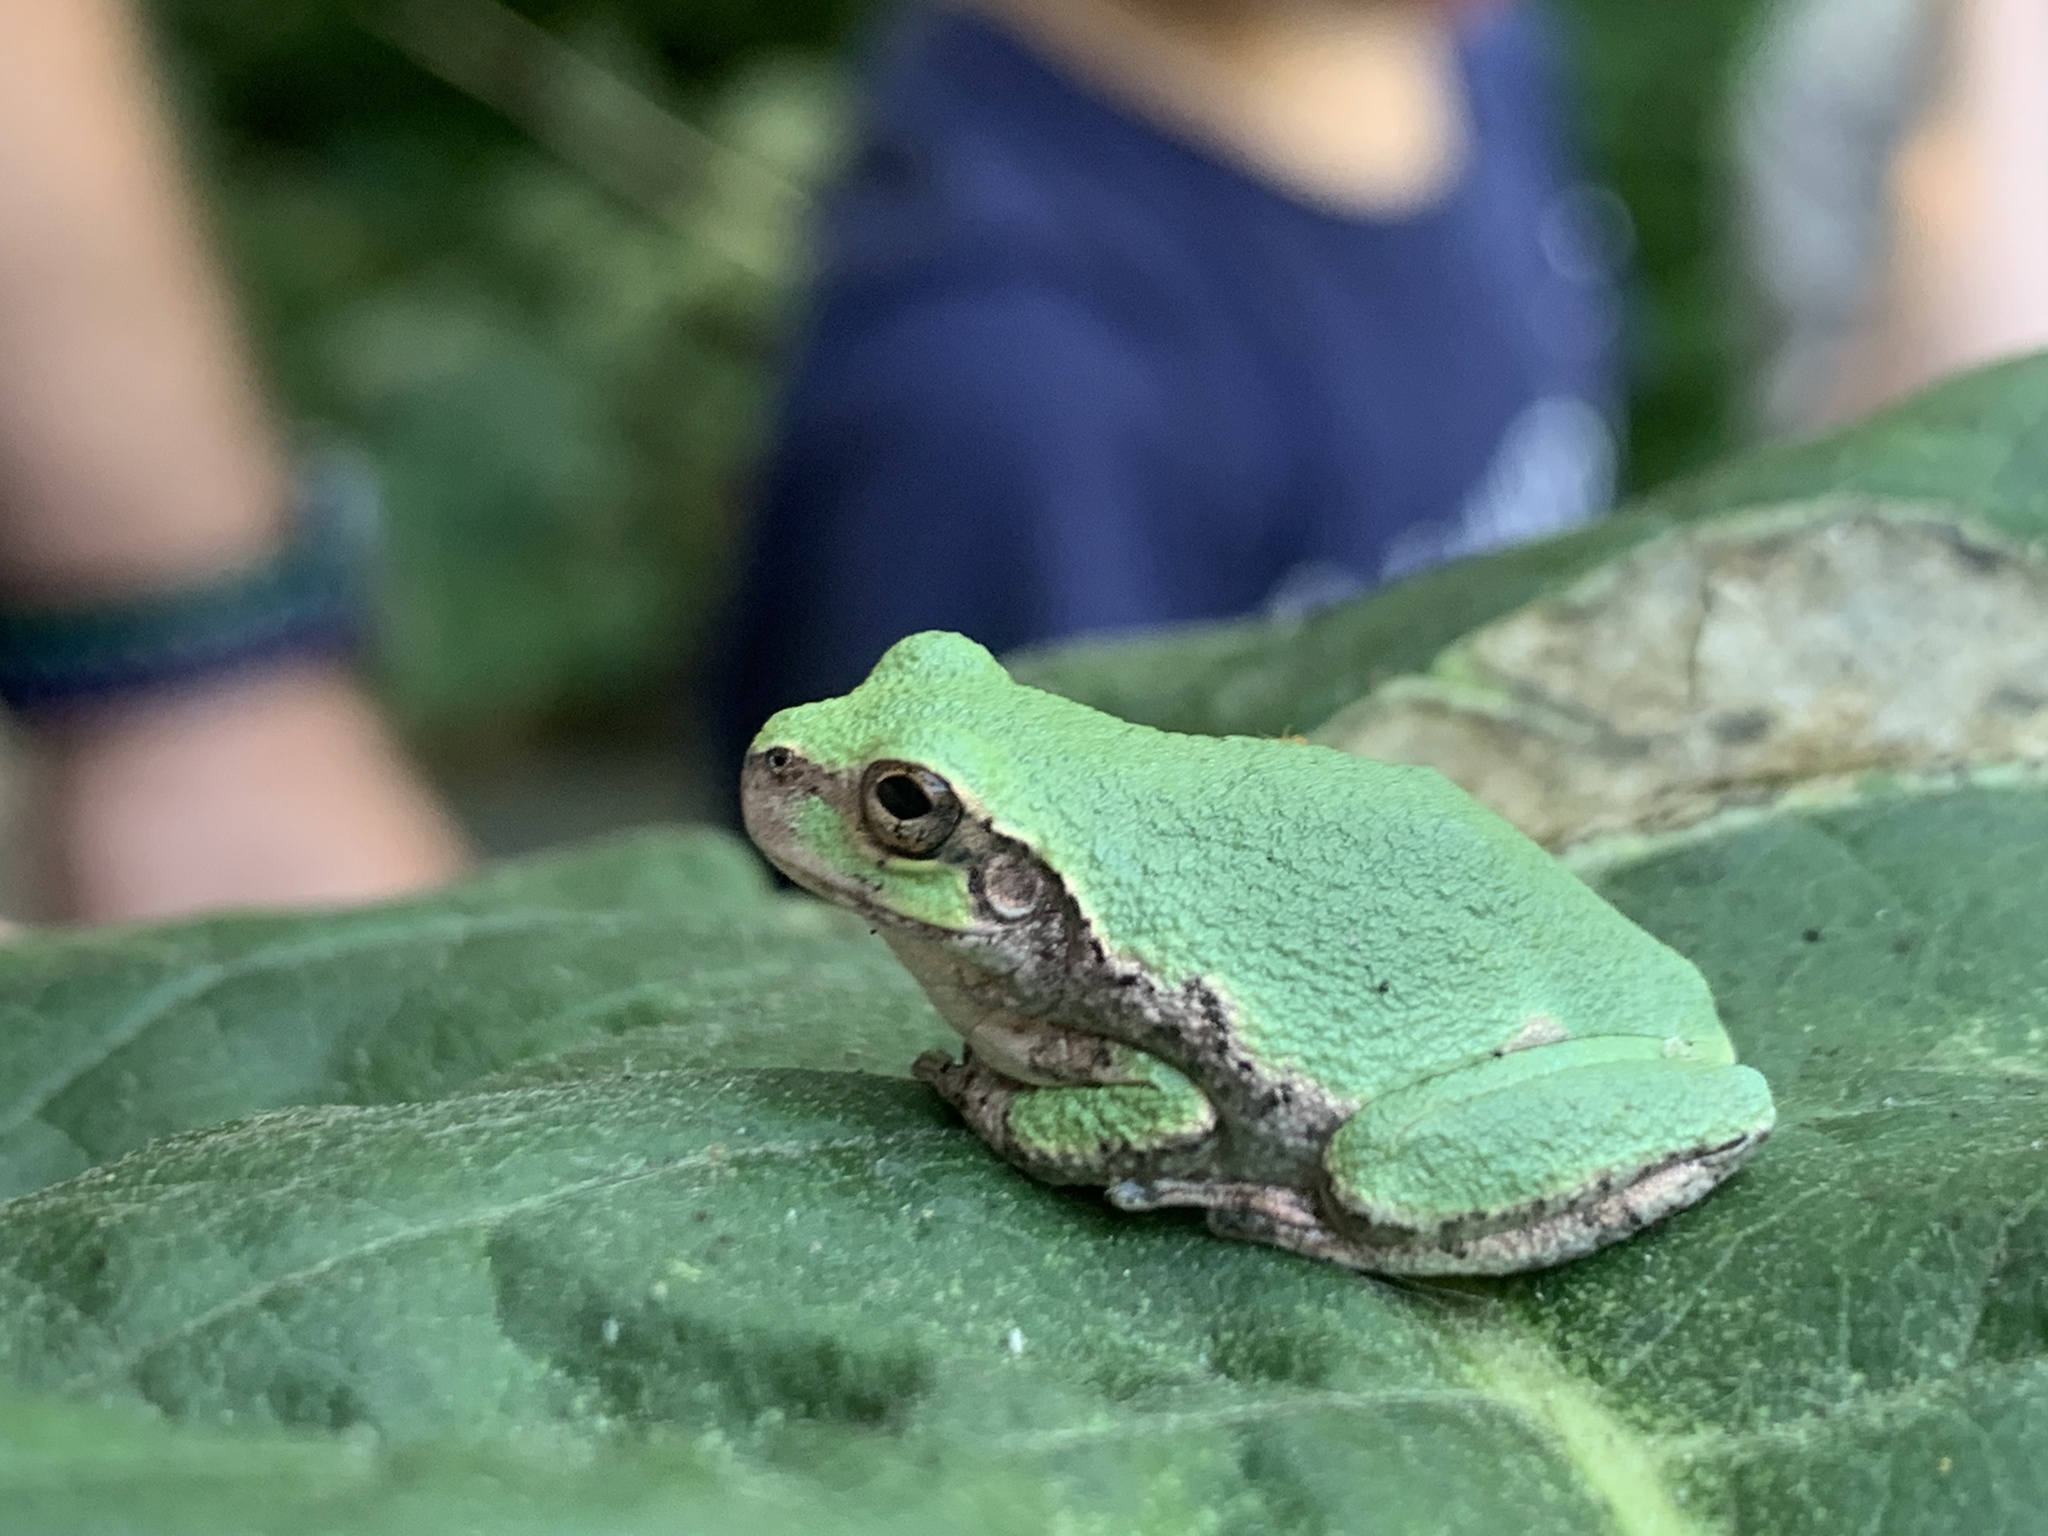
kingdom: Animalia
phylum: Chordata
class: Amphibia
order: Anura
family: Hylidae
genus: Hyla
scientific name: Hyla
